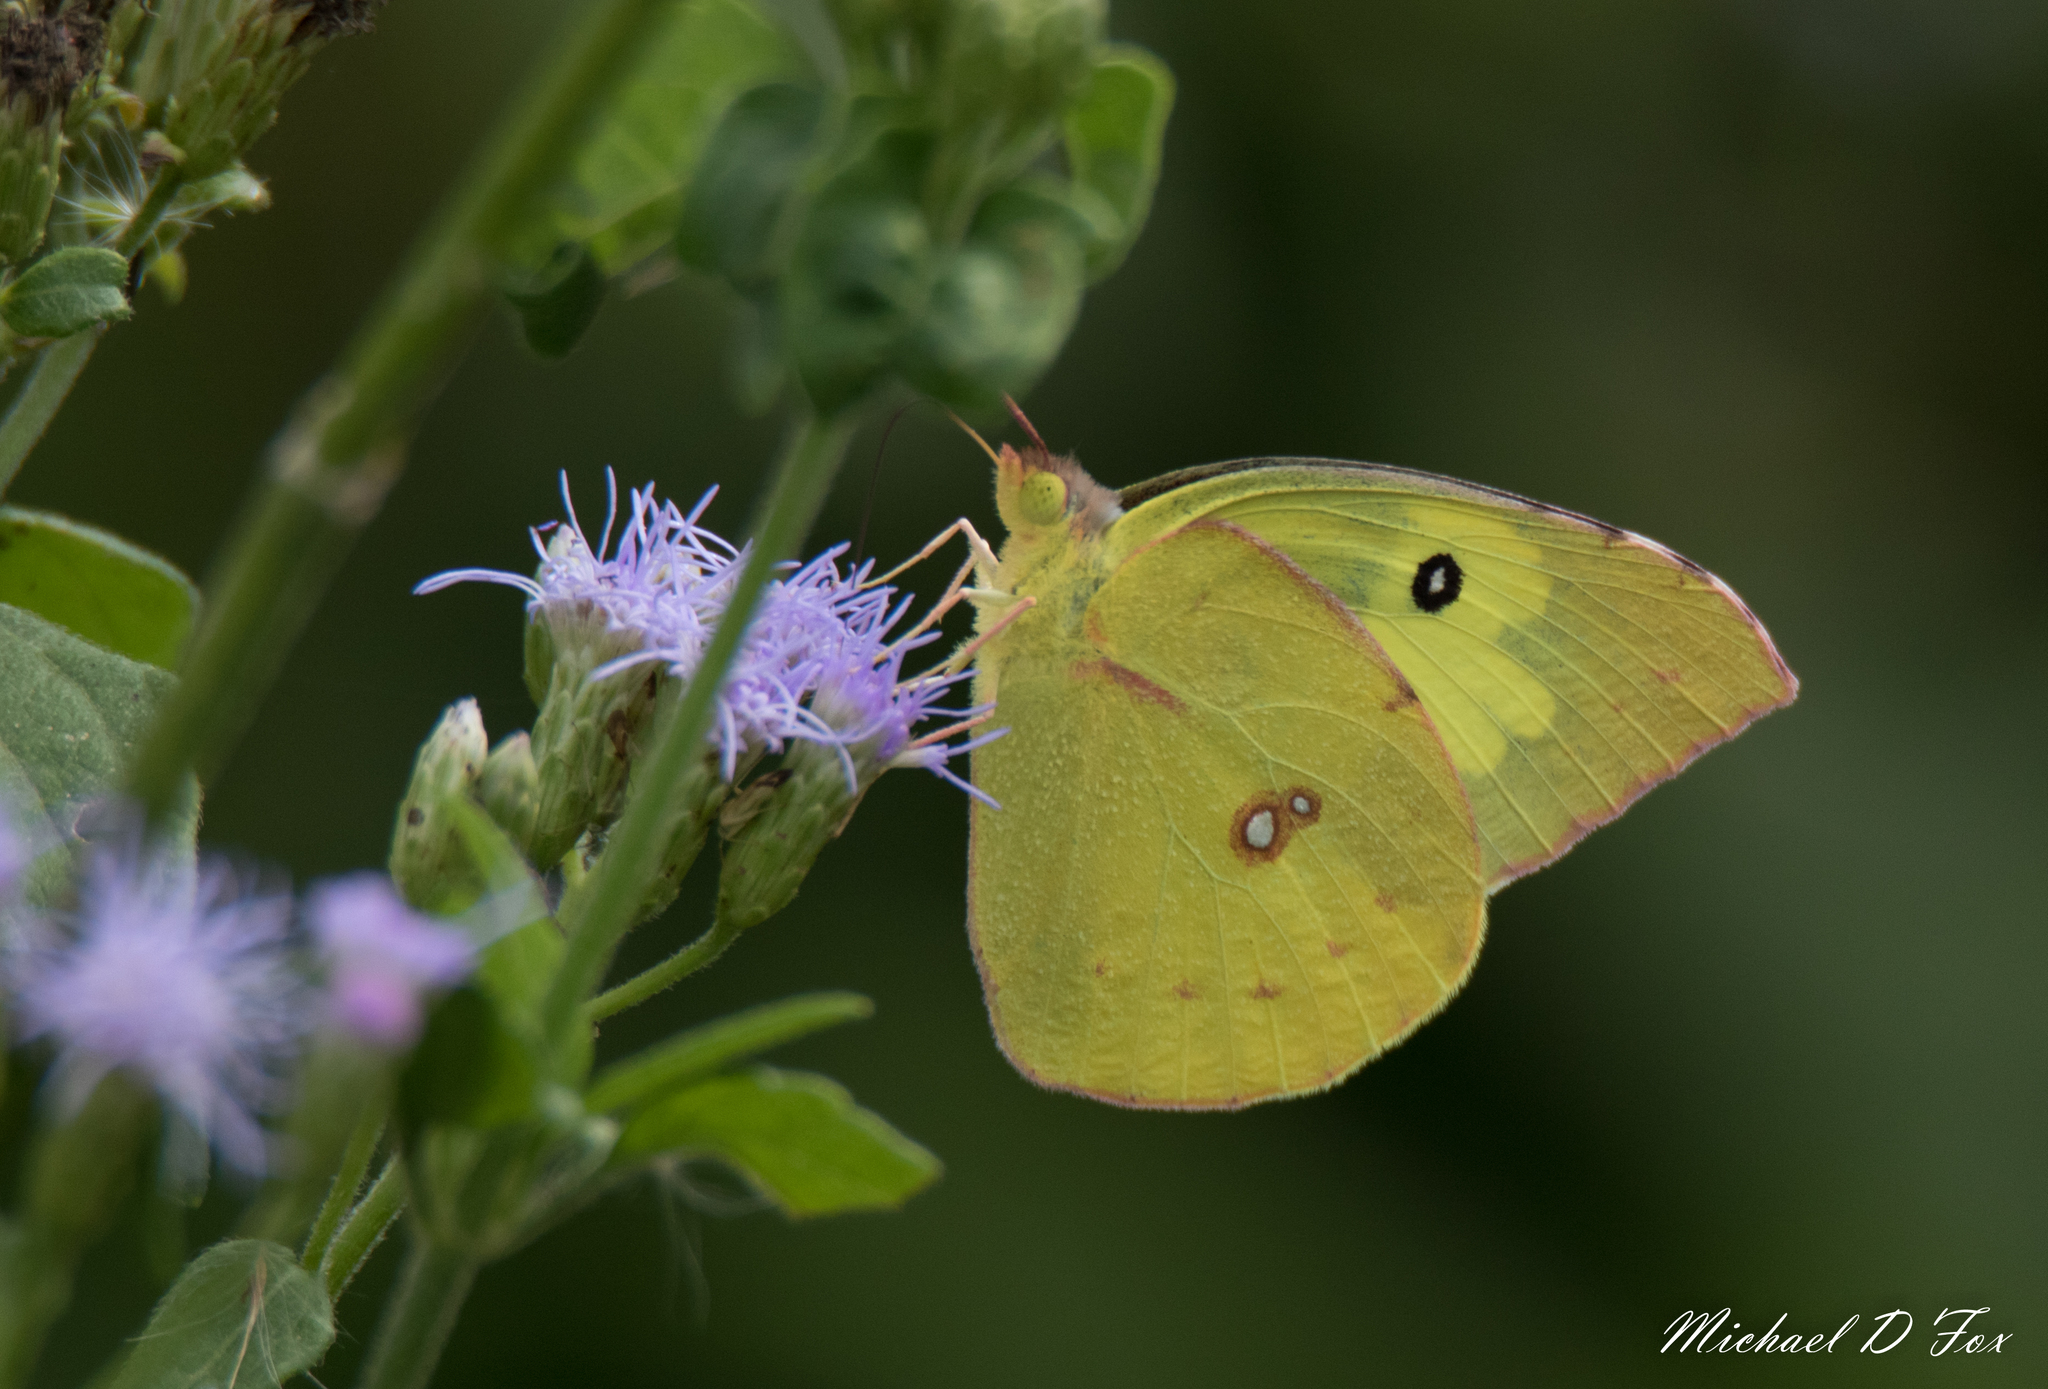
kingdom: Animalia
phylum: Arthropoda
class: Insecta
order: Lepidoptera
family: Pieridae
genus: Zerene
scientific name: Zerene cesonia
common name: Southern dogface
